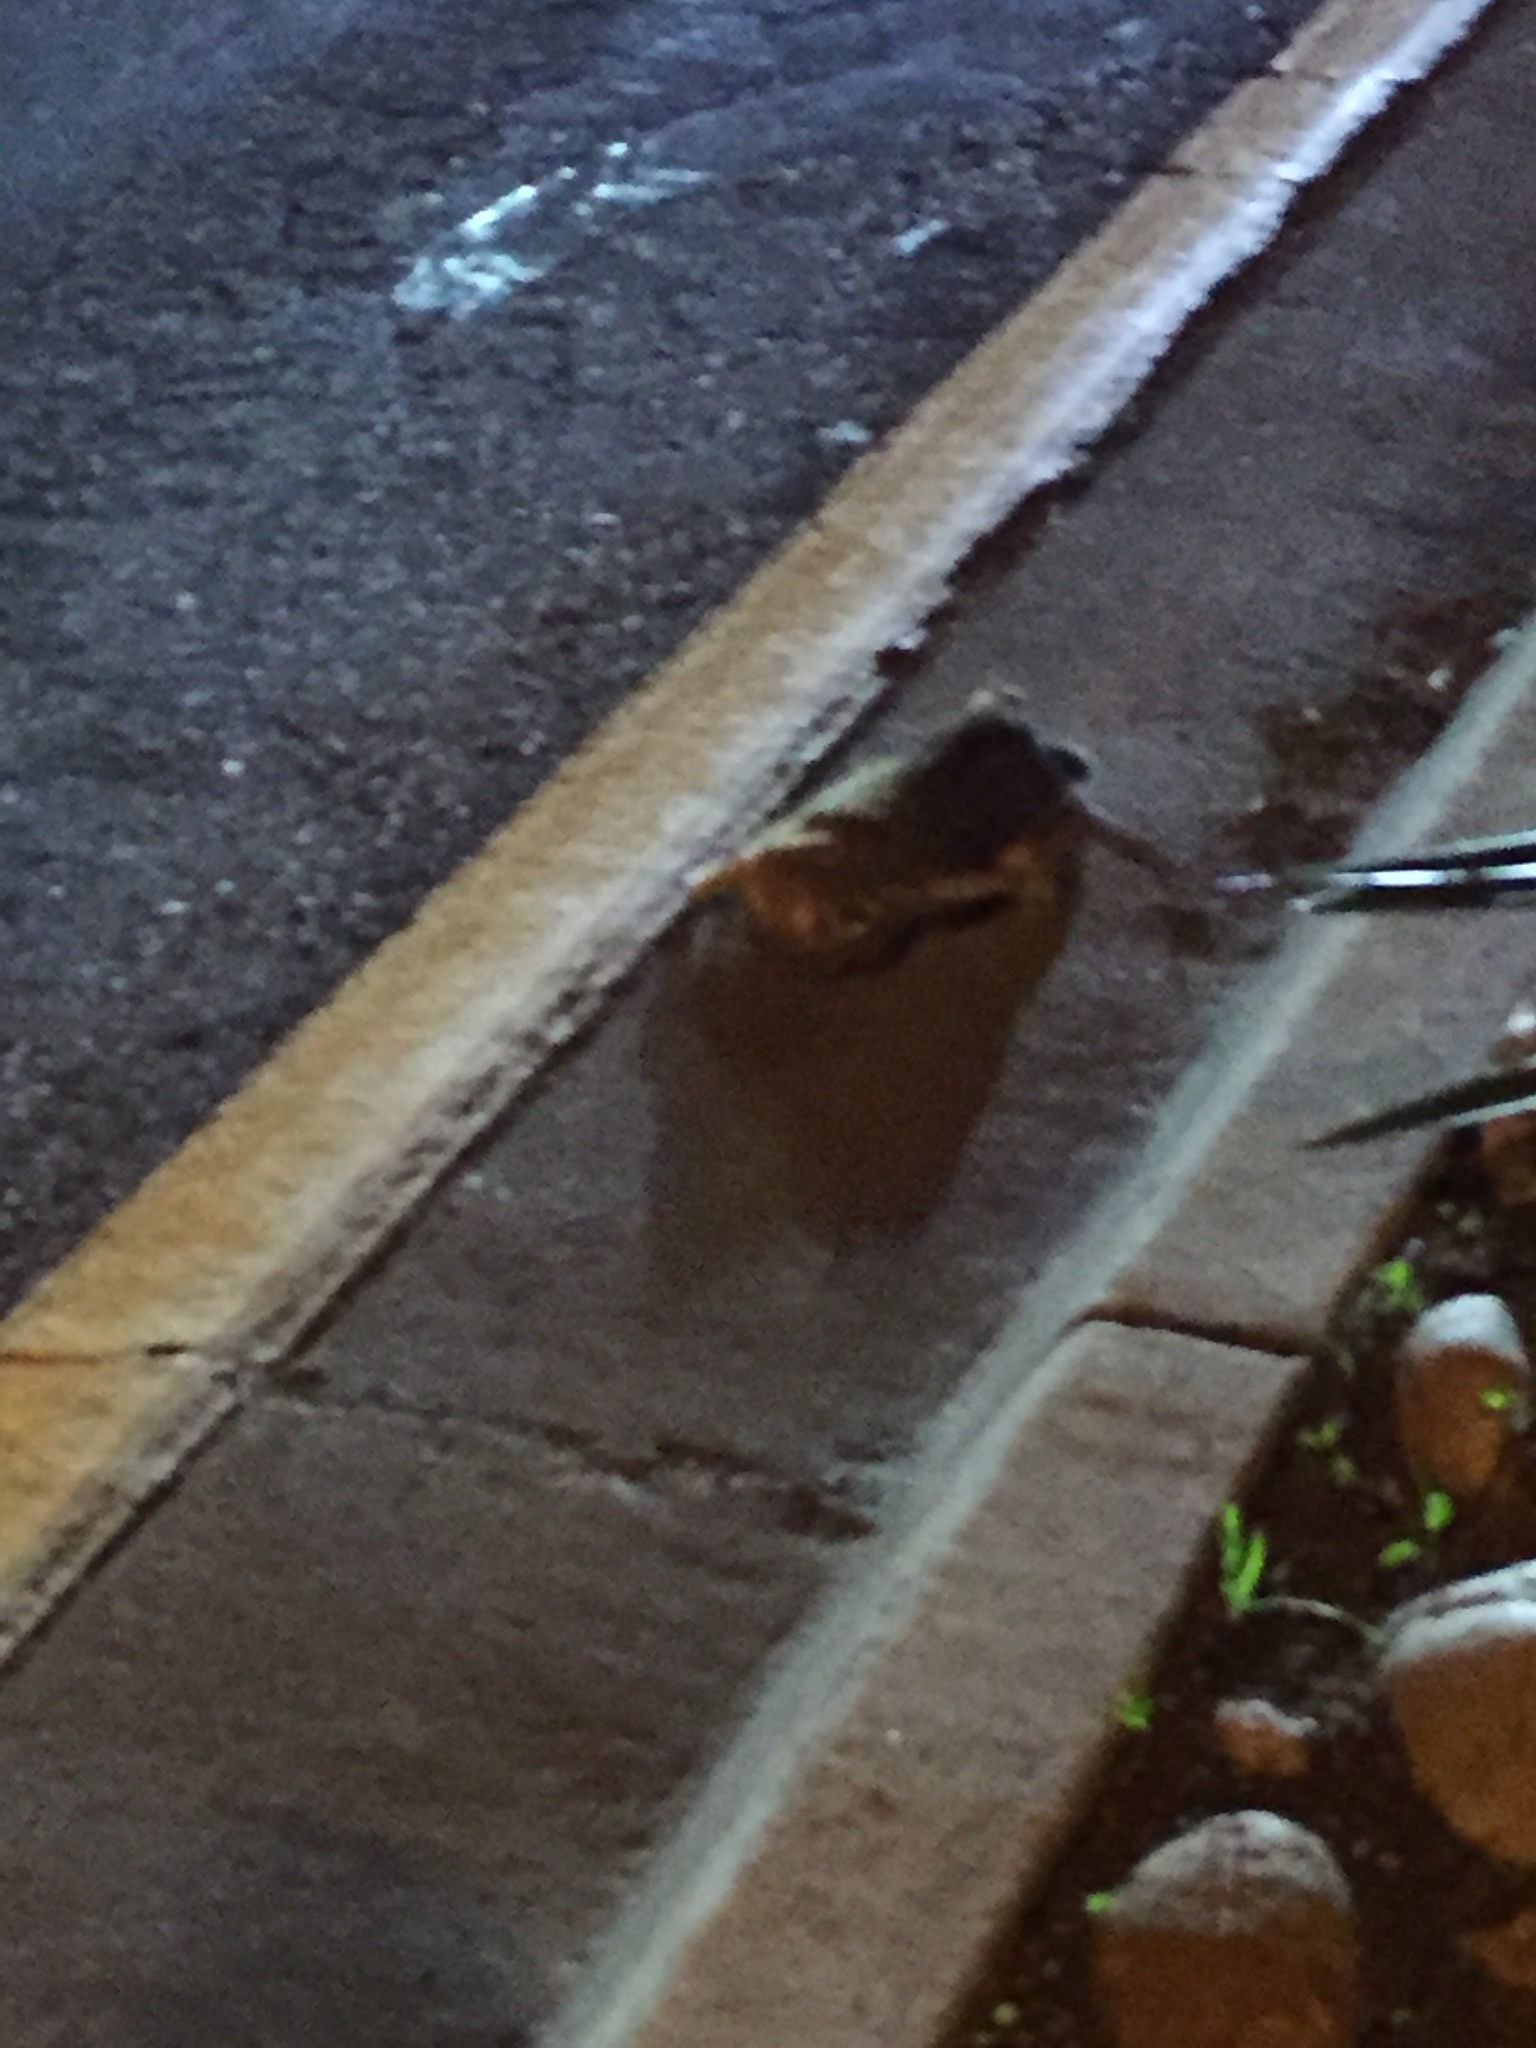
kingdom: Animalia
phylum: Chordata
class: Mammalia
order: Lagomorpha
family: Leporidae
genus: Sylvilagus
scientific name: Sylvilagus audubonii
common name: Desert cottontail
